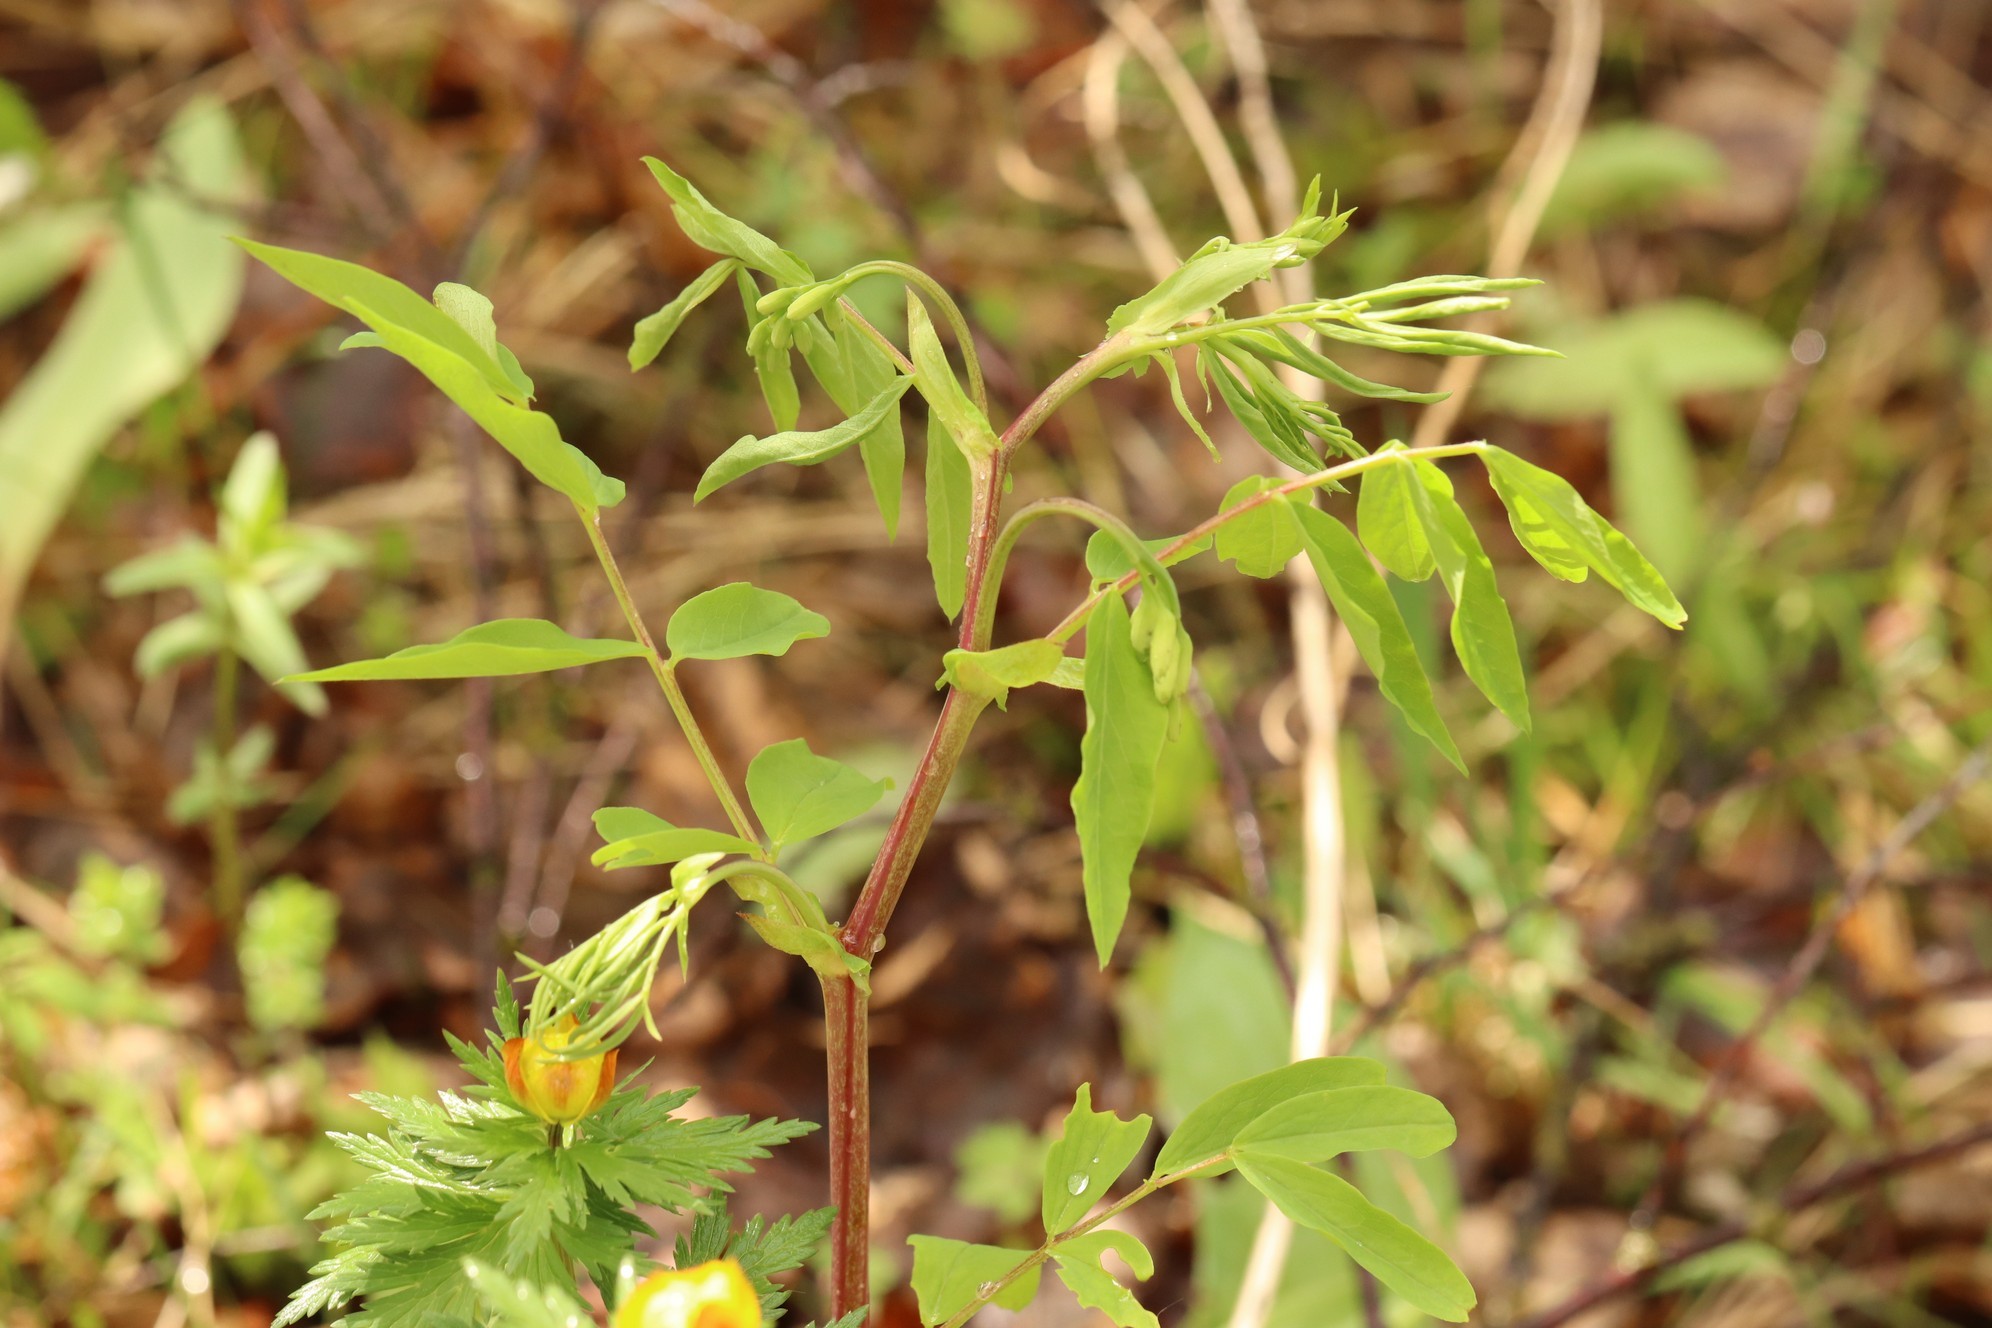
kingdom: Plantae
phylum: Tracheophyta
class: Magnoliopsida
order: Fabales
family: Fabaceae
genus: Lathyrus
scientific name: Lathyrus pisiformis
